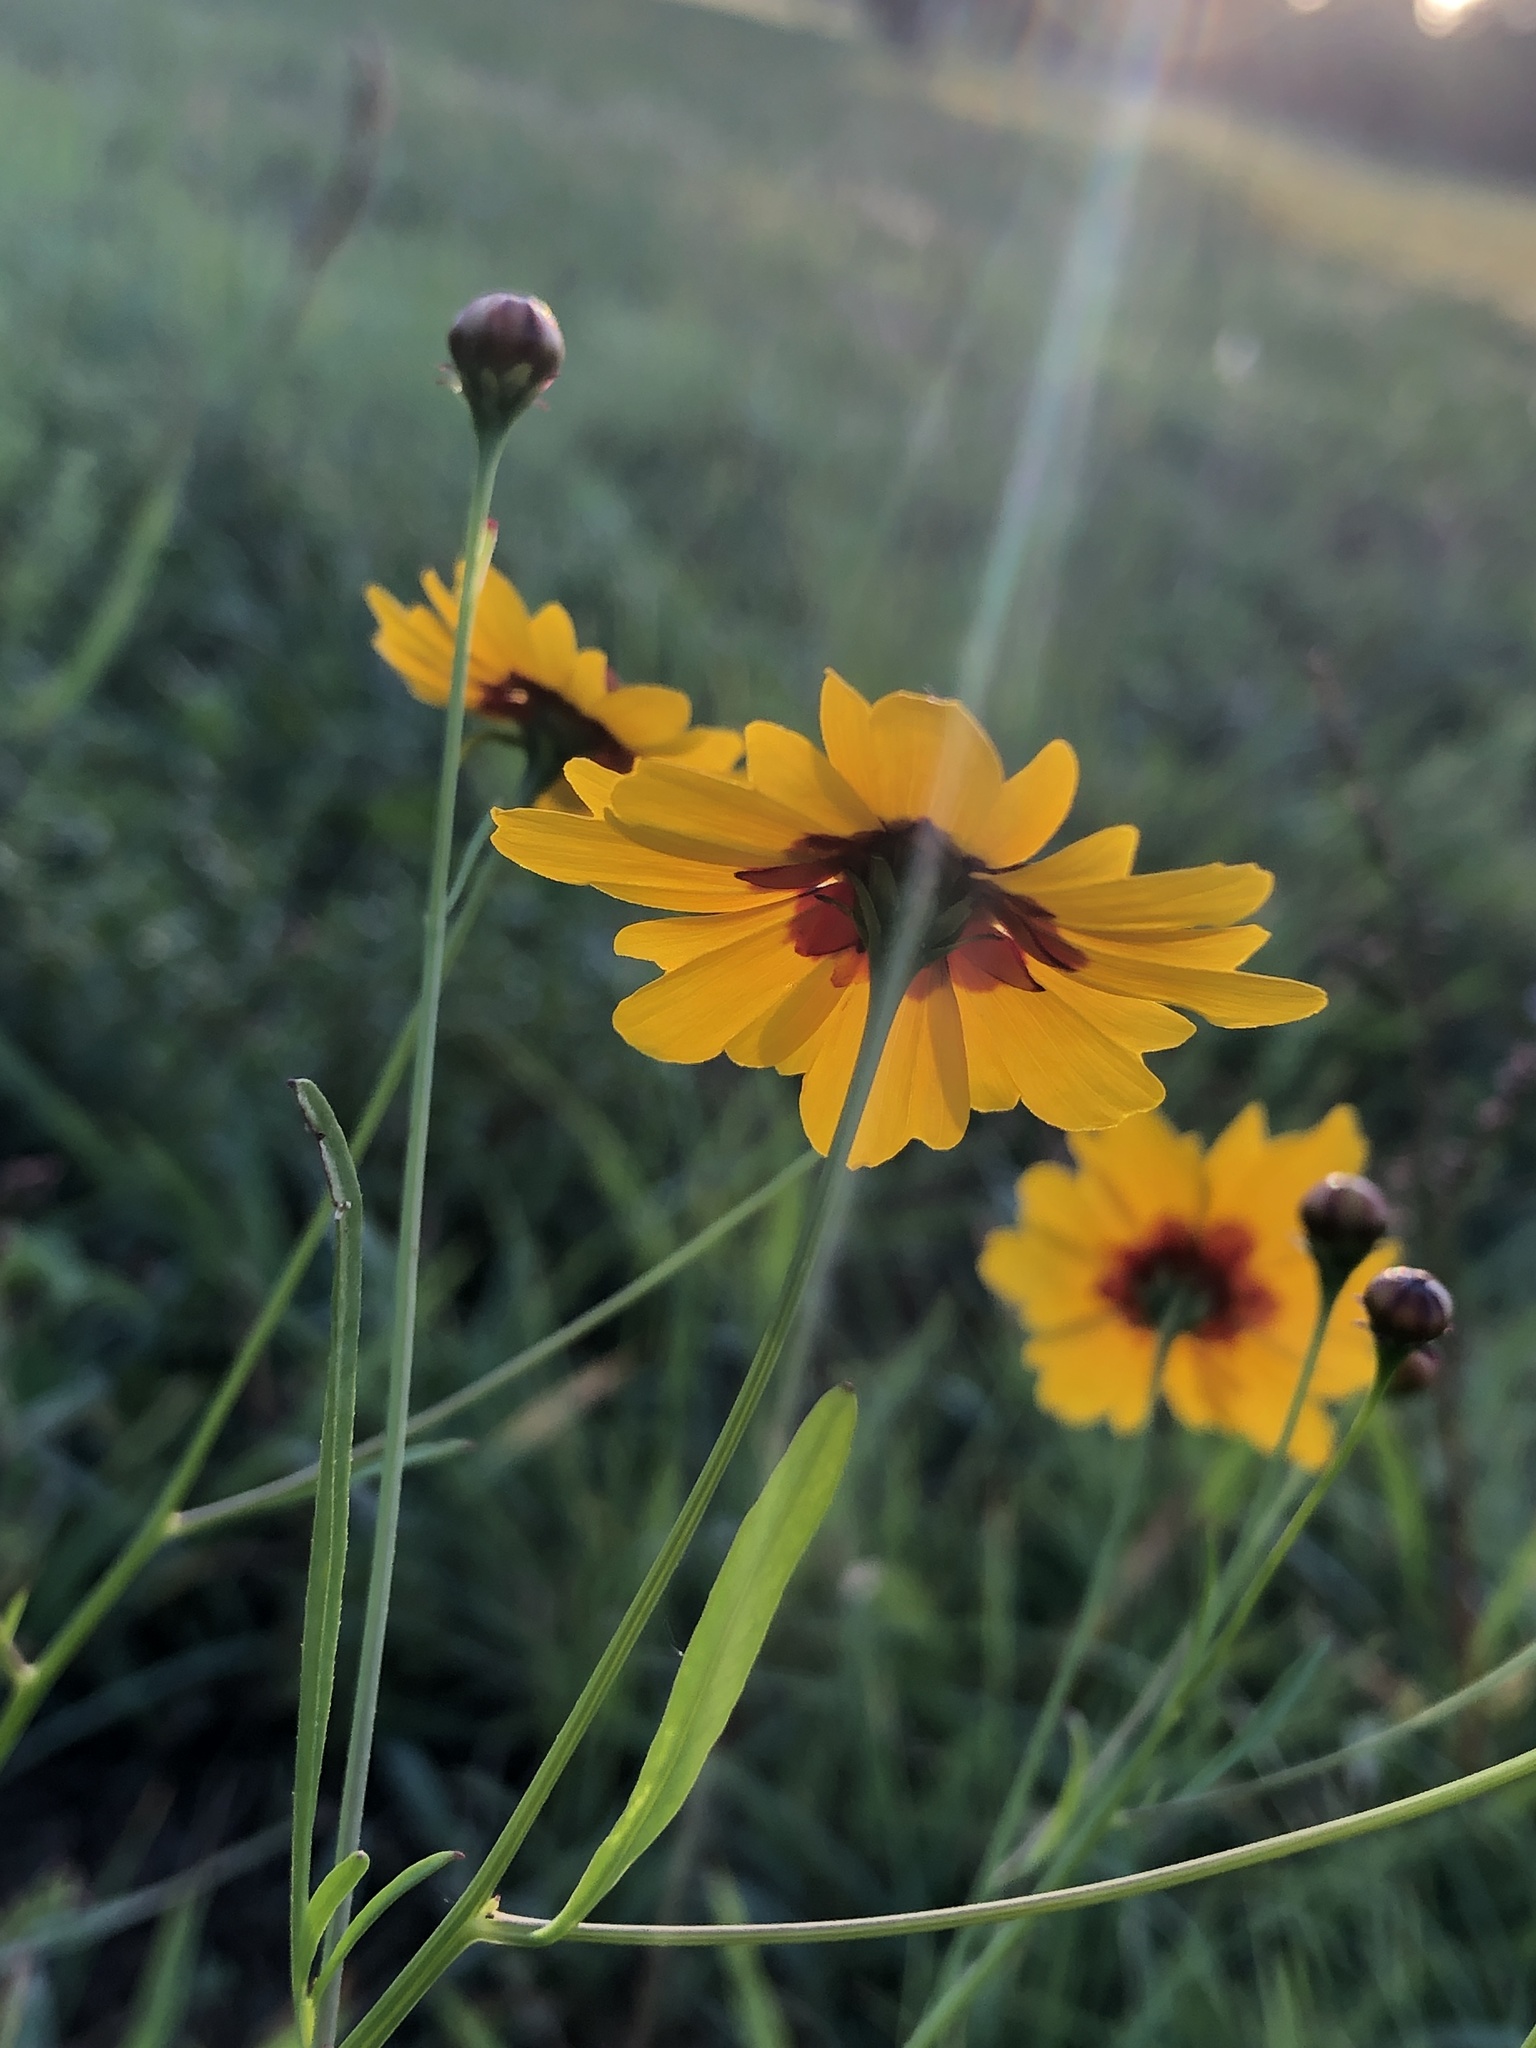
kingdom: Plantae
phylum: Tracheophyta
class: Magnoliopsida
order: Asterales
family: Asteraceae
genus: Coreopsis
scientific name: Coreopsis tinctoria
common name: Garden tickseed
